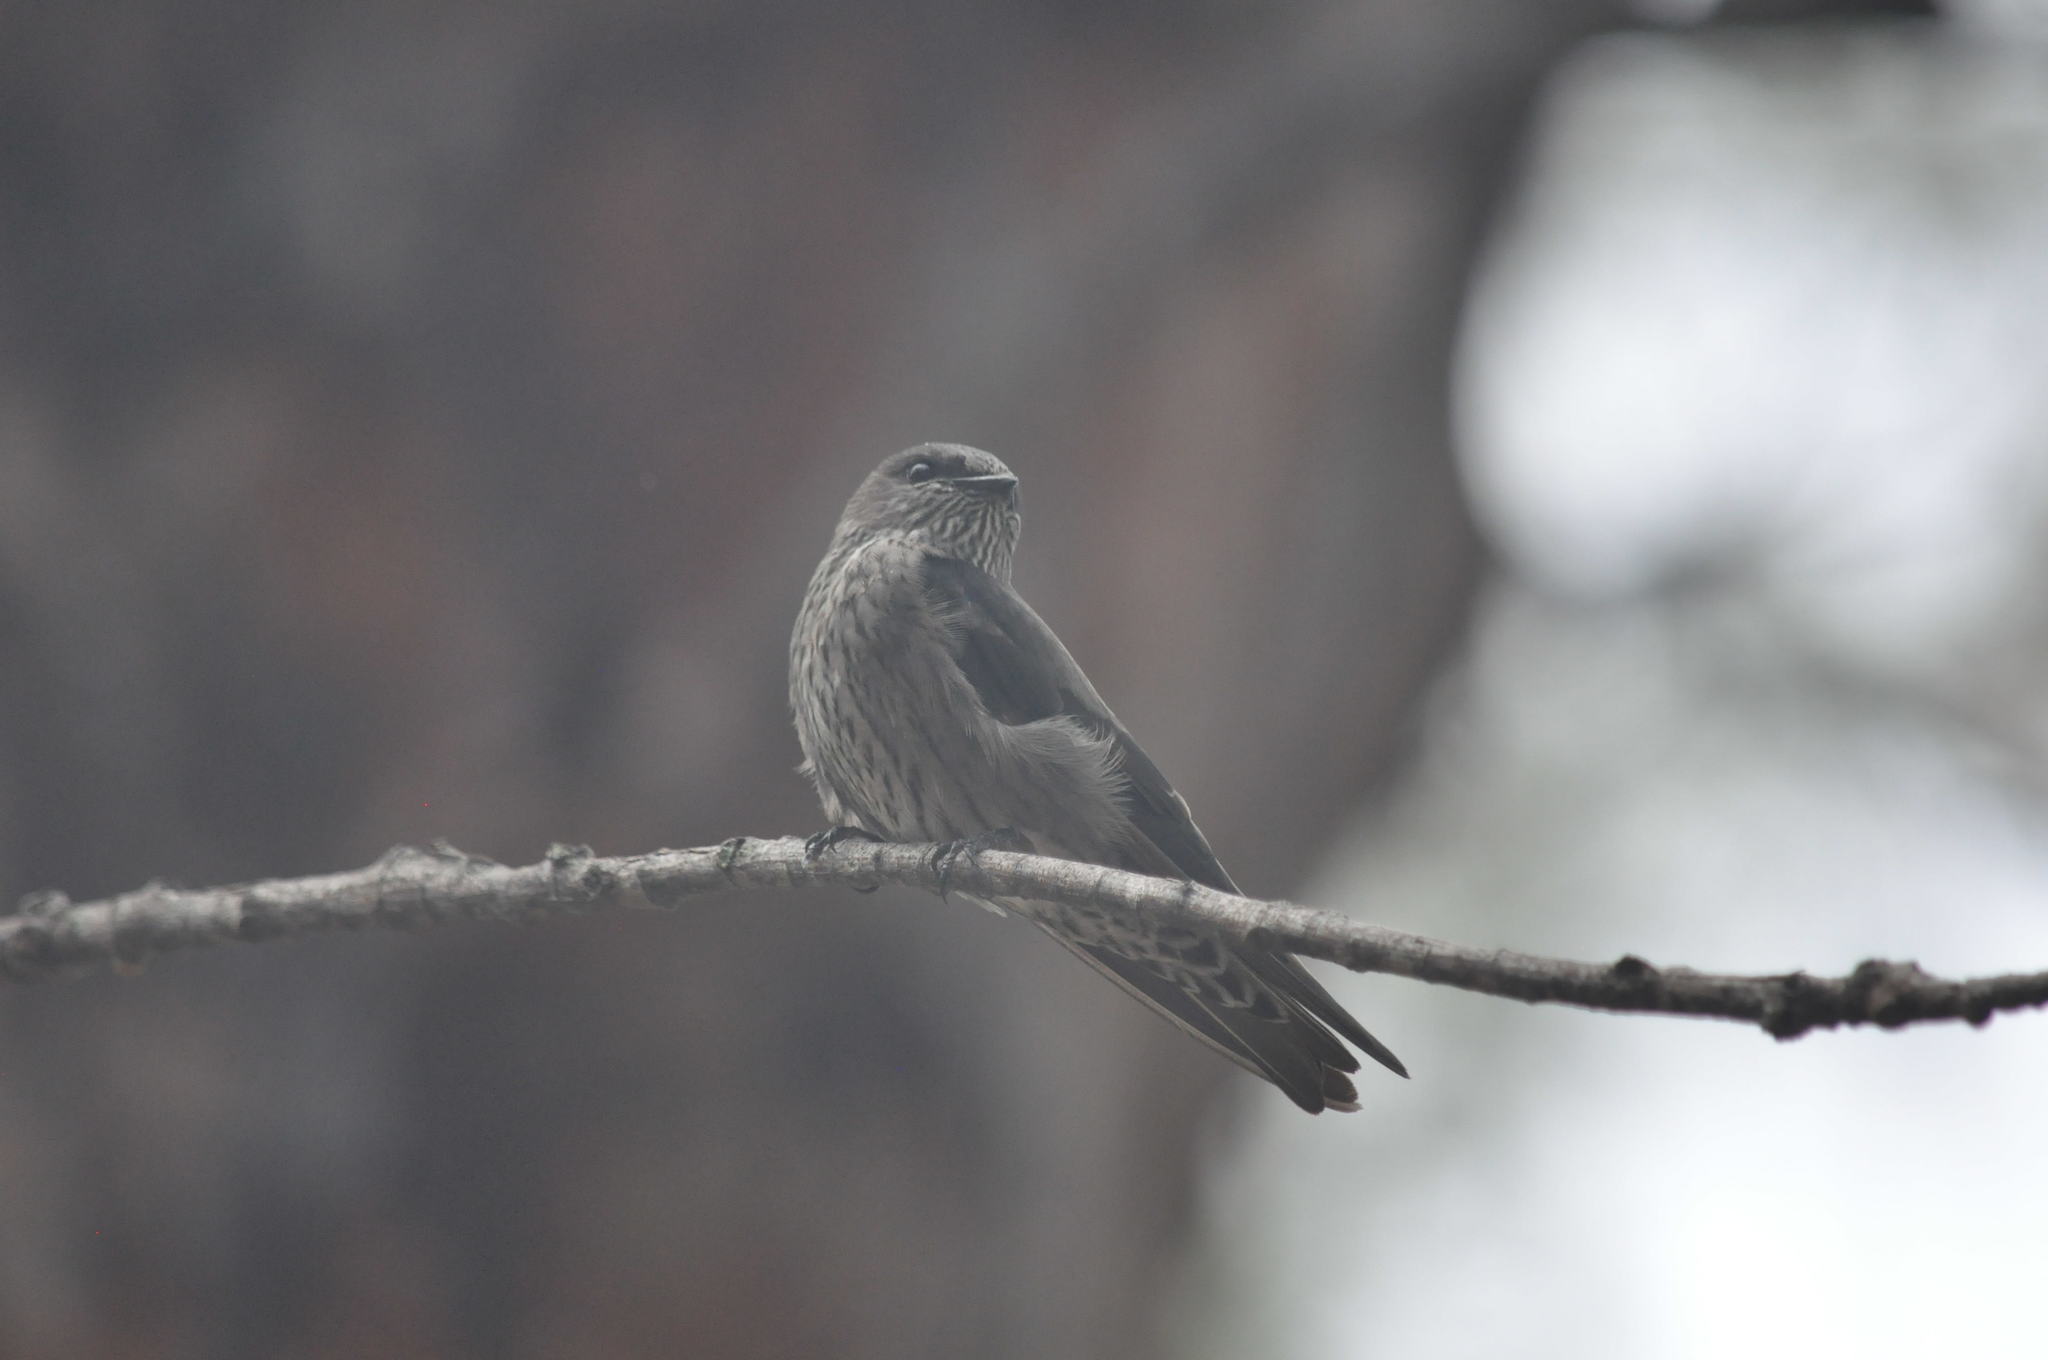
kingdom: Animalia
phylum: Chordata
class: Aves
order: Passeriformes
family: Hirundinidae
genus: Phedina
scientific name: Phedina borbonica
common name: Mascarene martin
